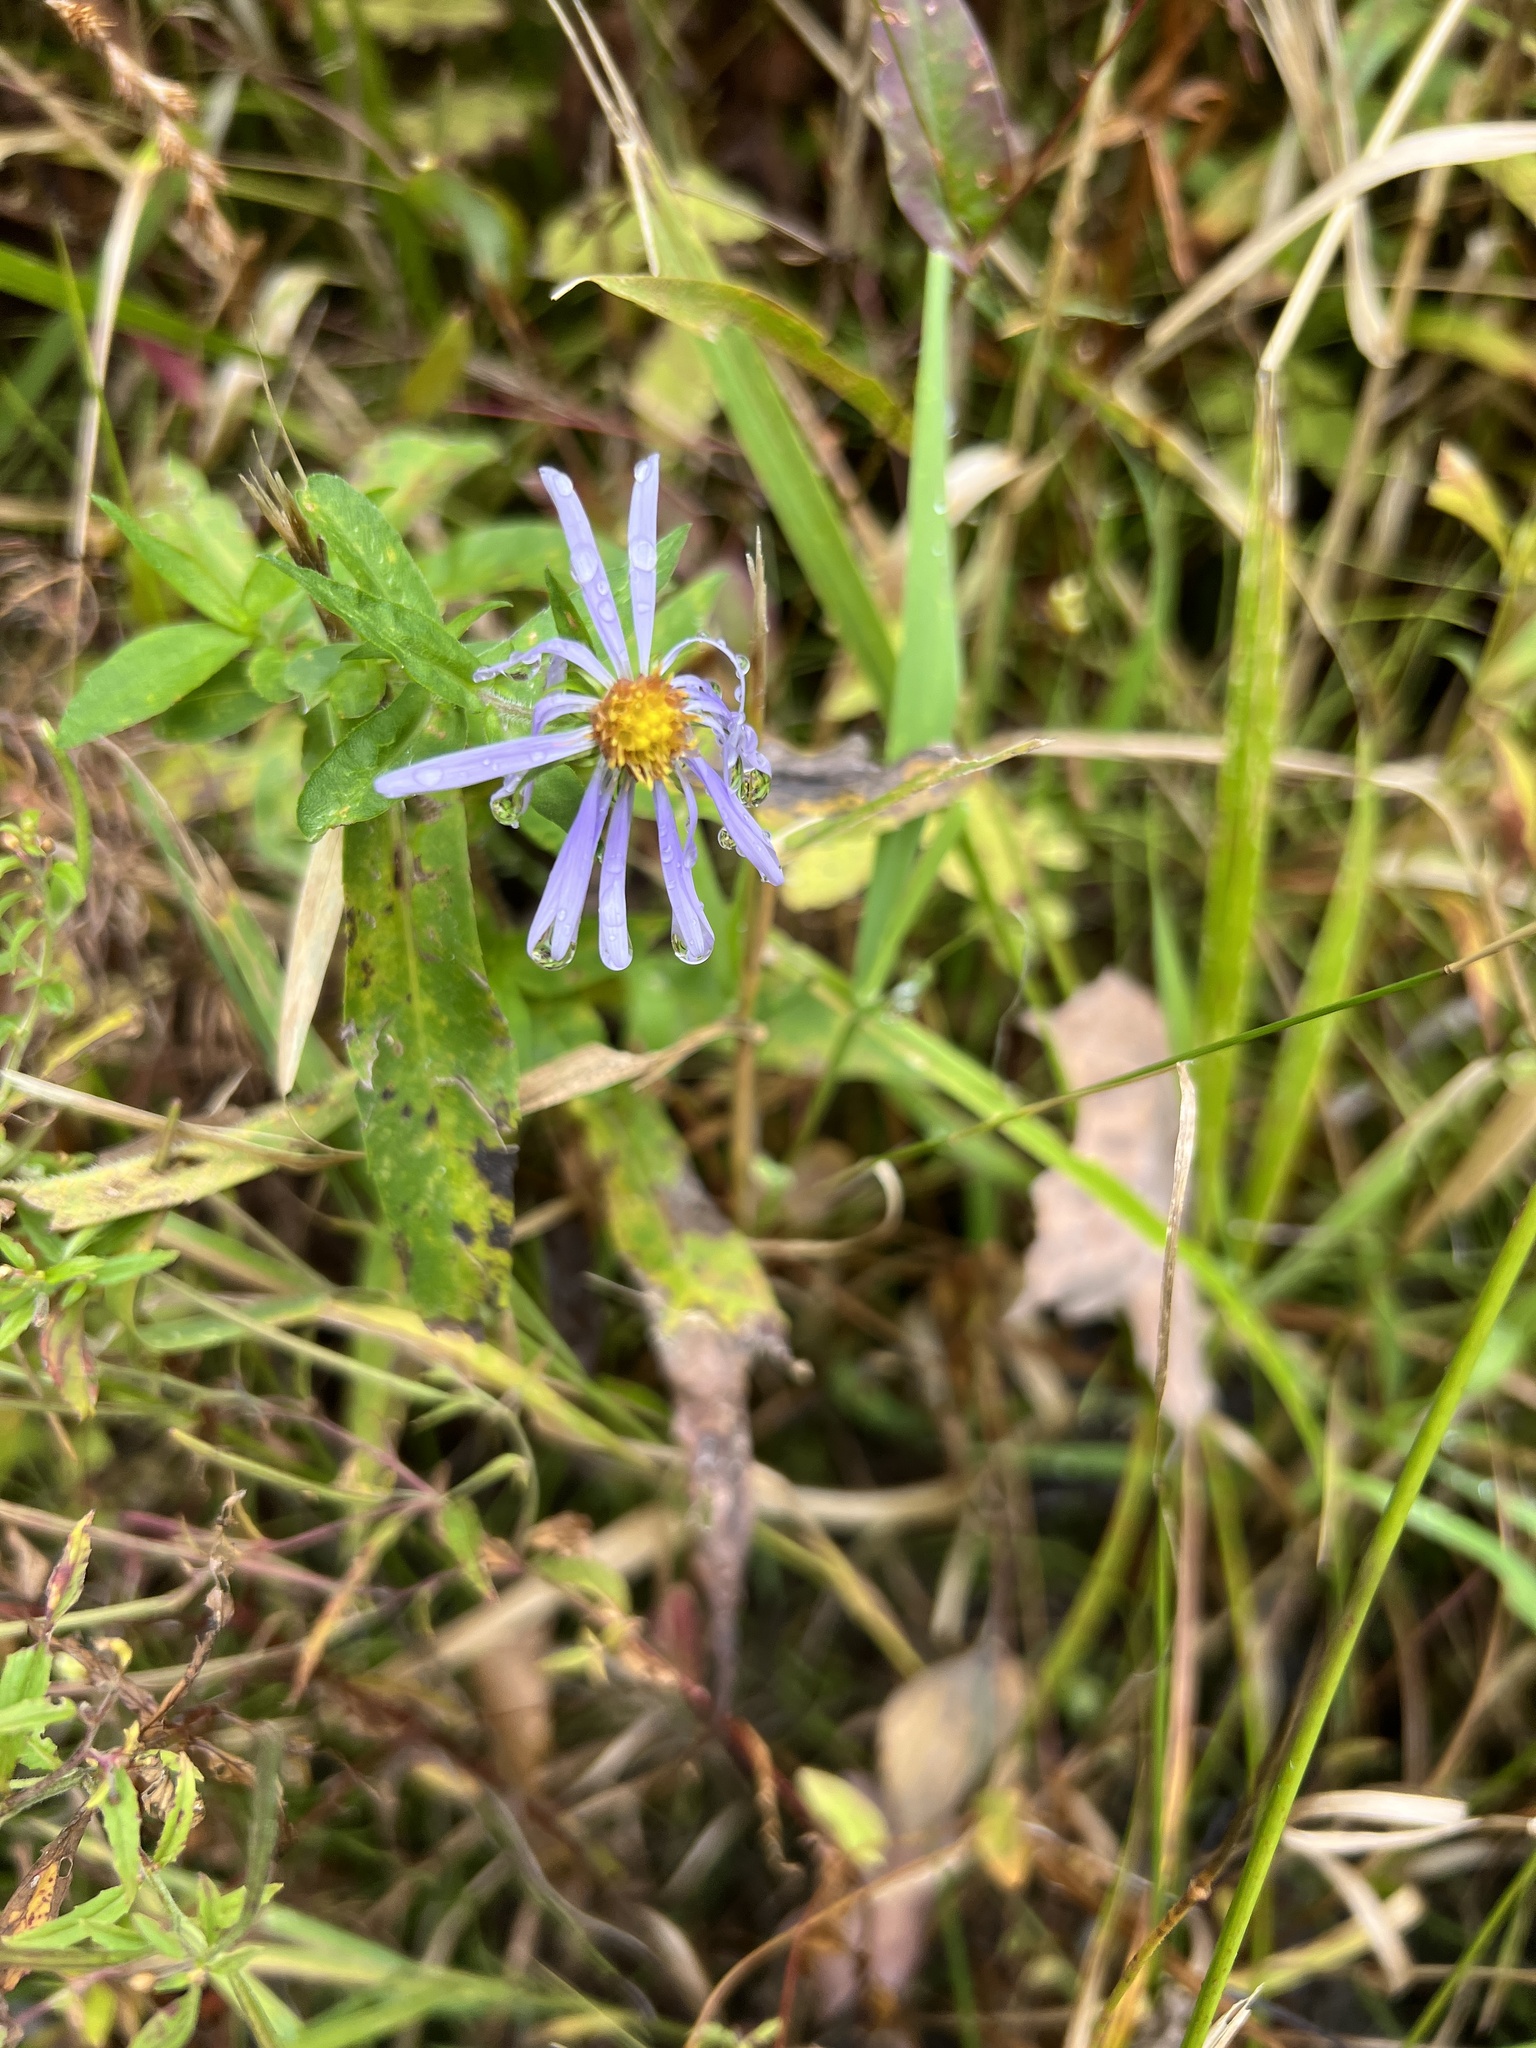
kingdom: Plantae
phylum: Tracheophyta
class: Magnoliopsida
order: Asterales
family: Asteraceae
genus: Symphyotrichum
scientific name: Symphyotrichum puniceum
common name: Bog aster
